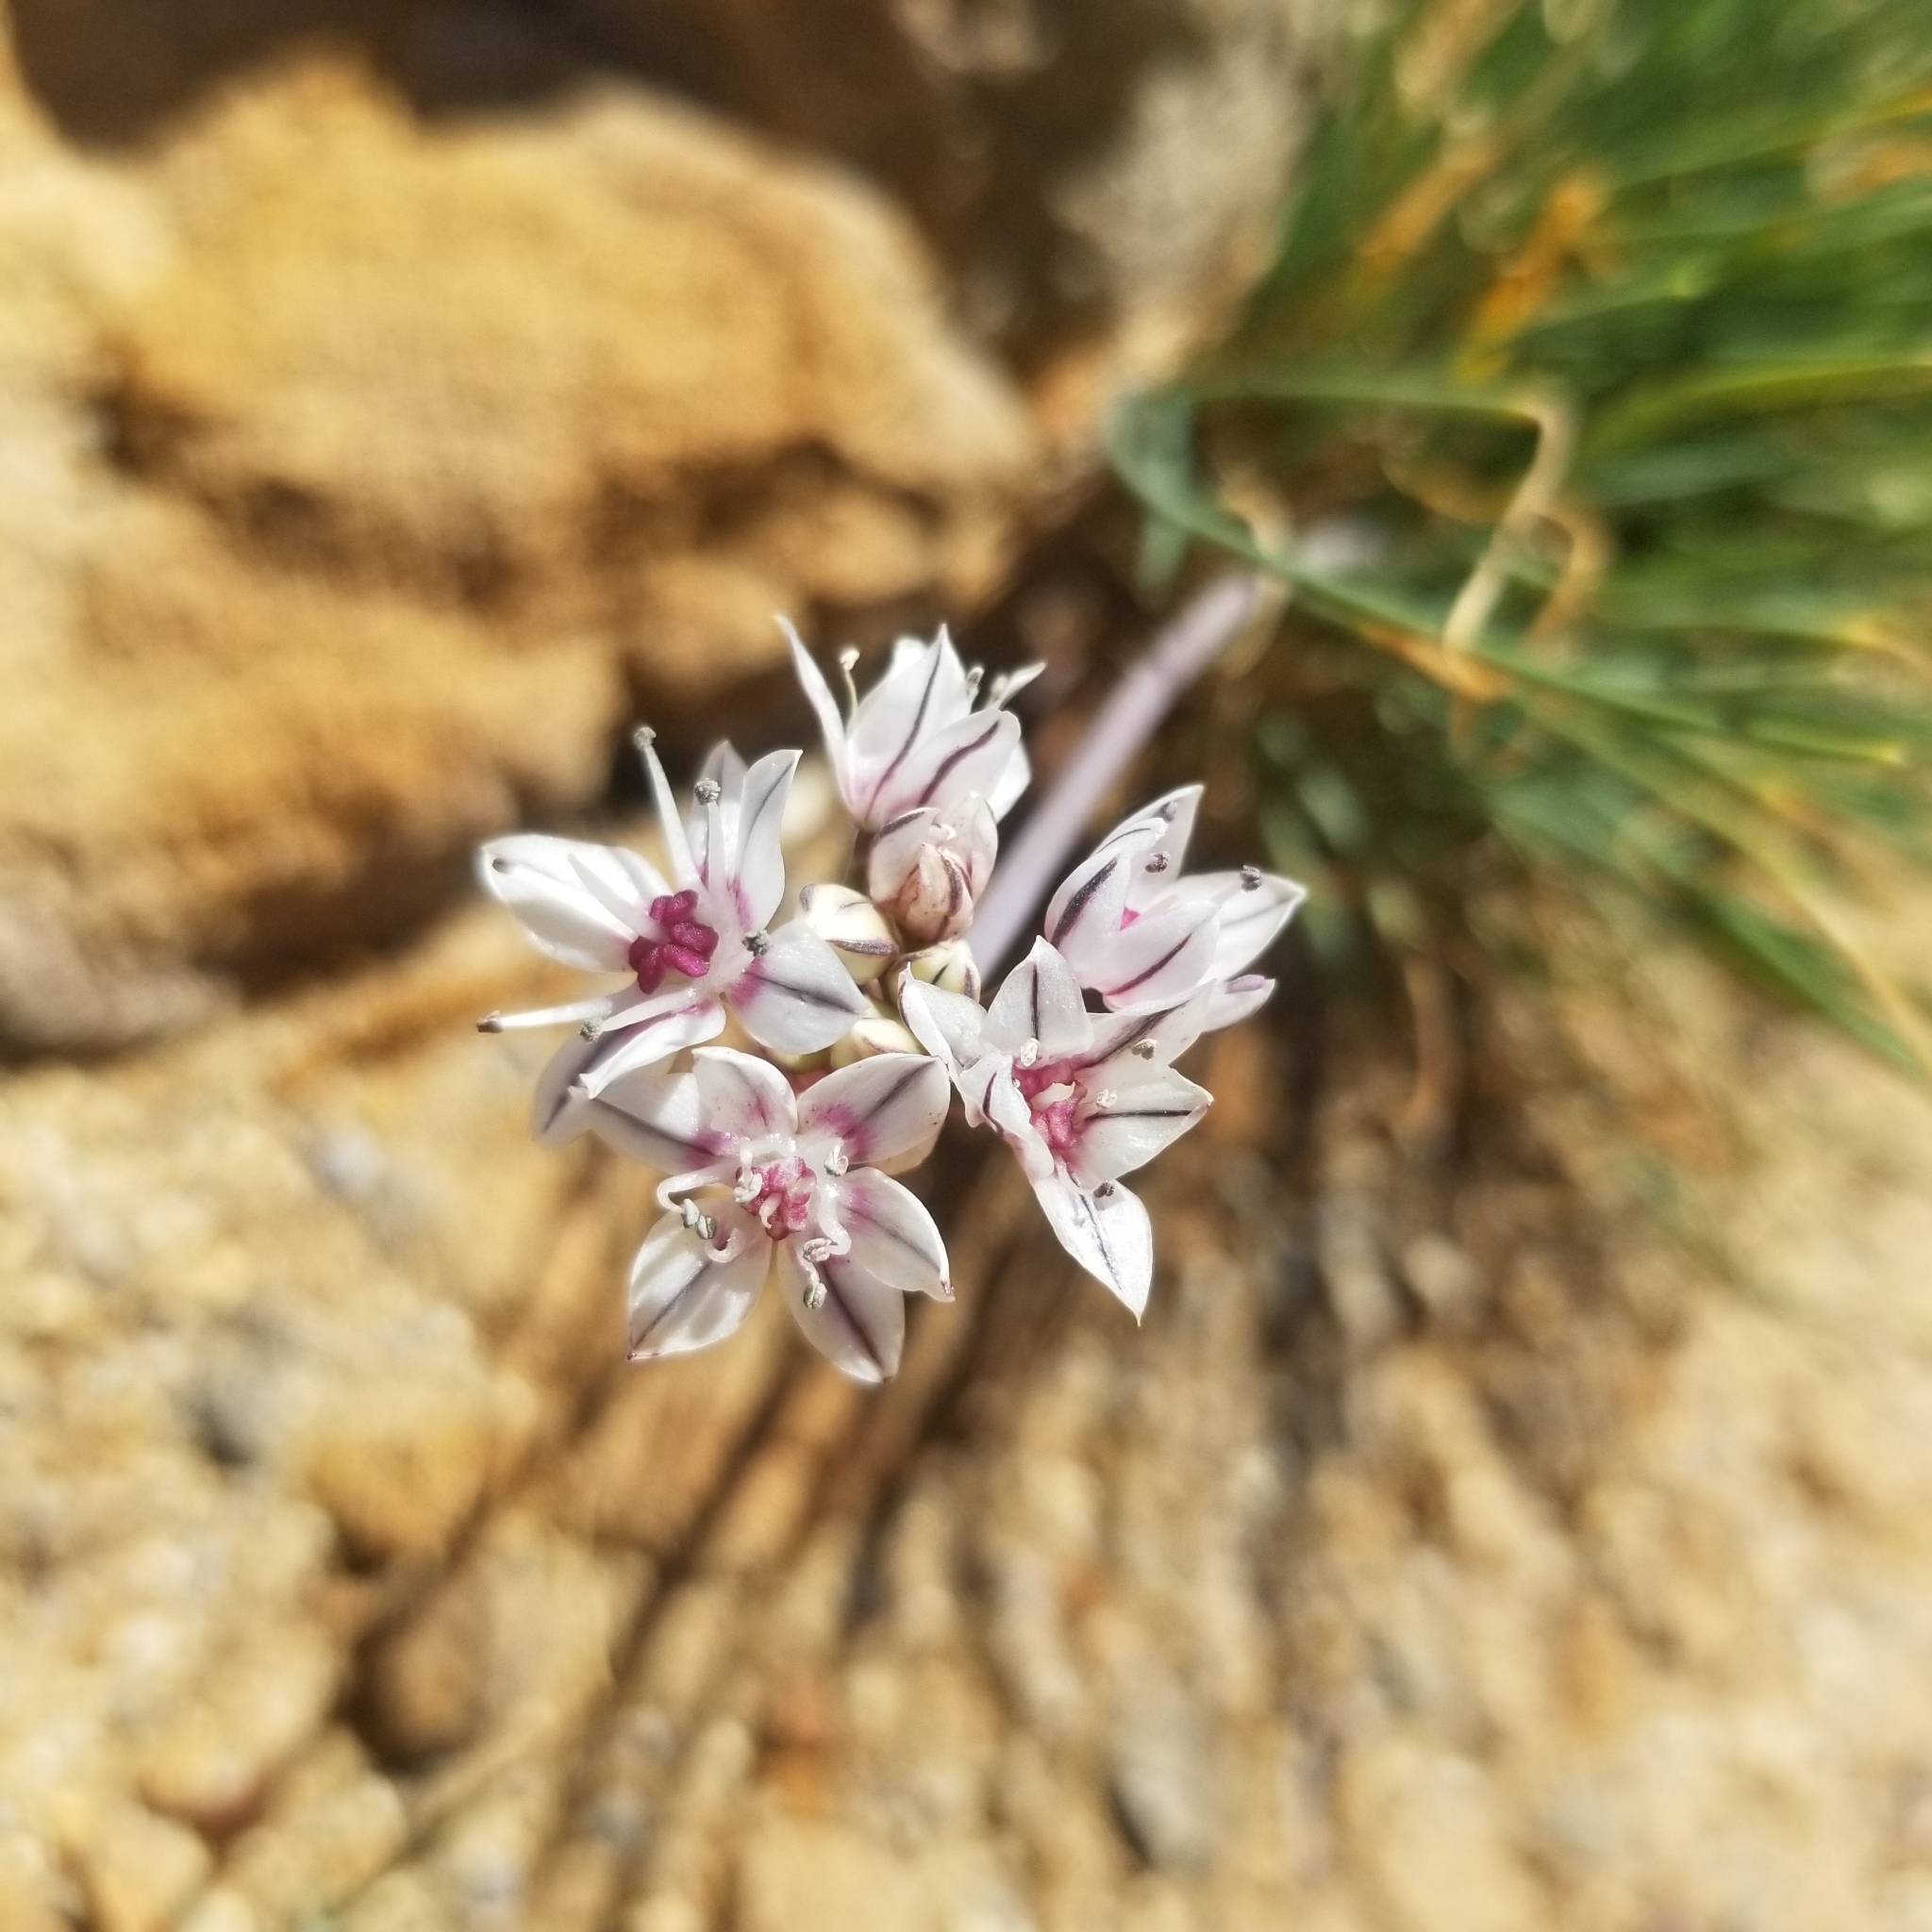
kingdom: Plantae
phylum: Tracheophyta
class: Liliopsida
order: Asparagales
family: Amaryllidaceae
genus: Allium
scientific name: Allium haematochiton
